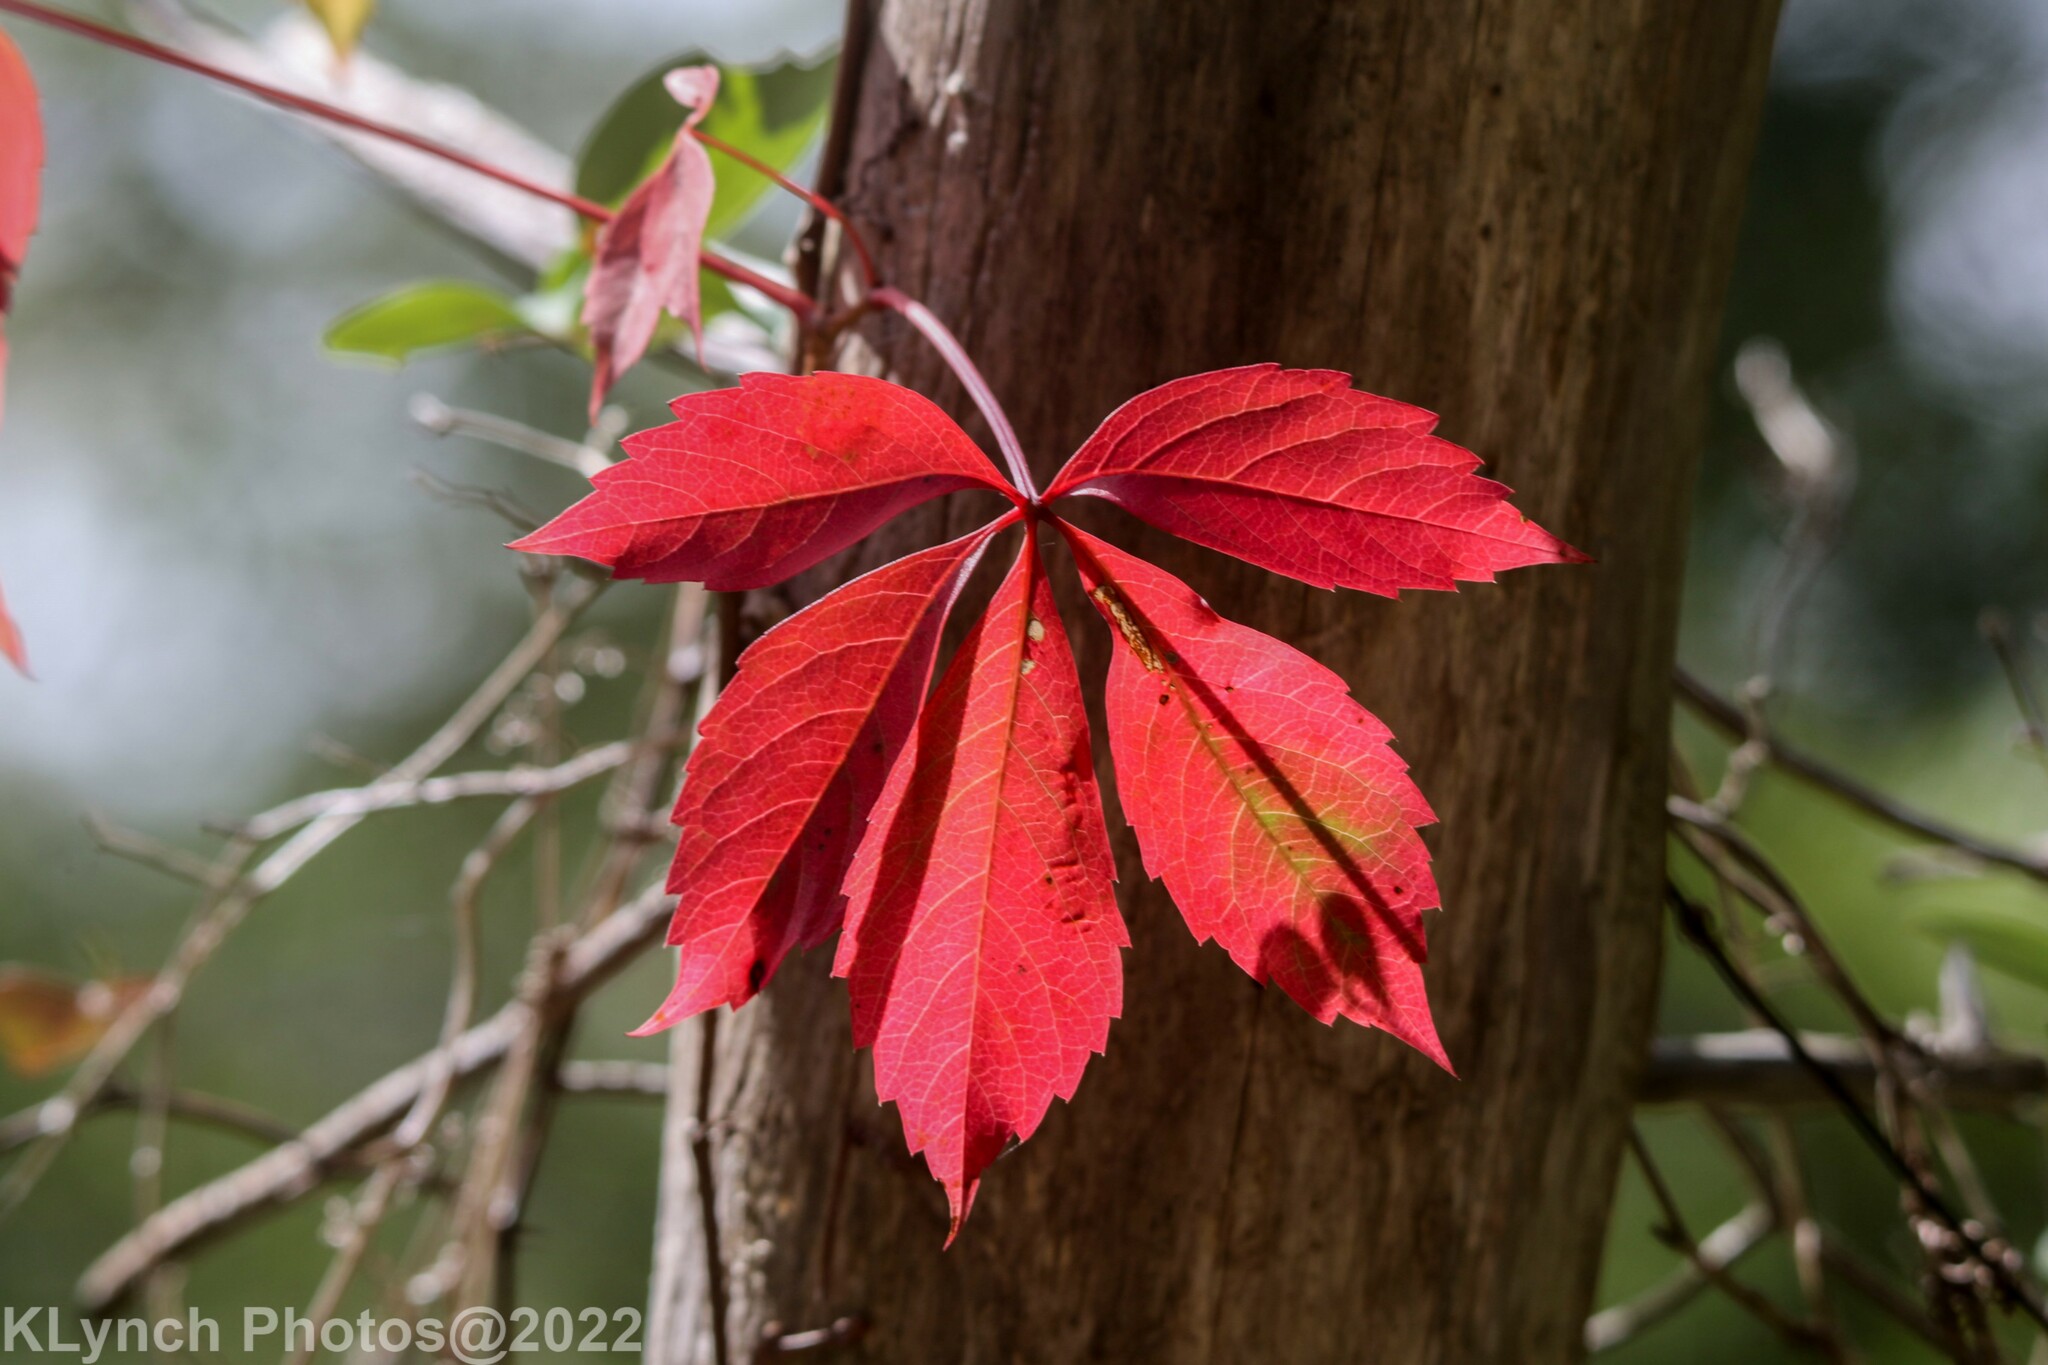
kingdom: Plantae
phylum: Tracheophyta
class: Magnoliopsida
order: Vitales
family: Vitaceae
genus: Parthenocissus
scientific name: Parthenocissus quinquefolia
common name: Virginia-creeper
